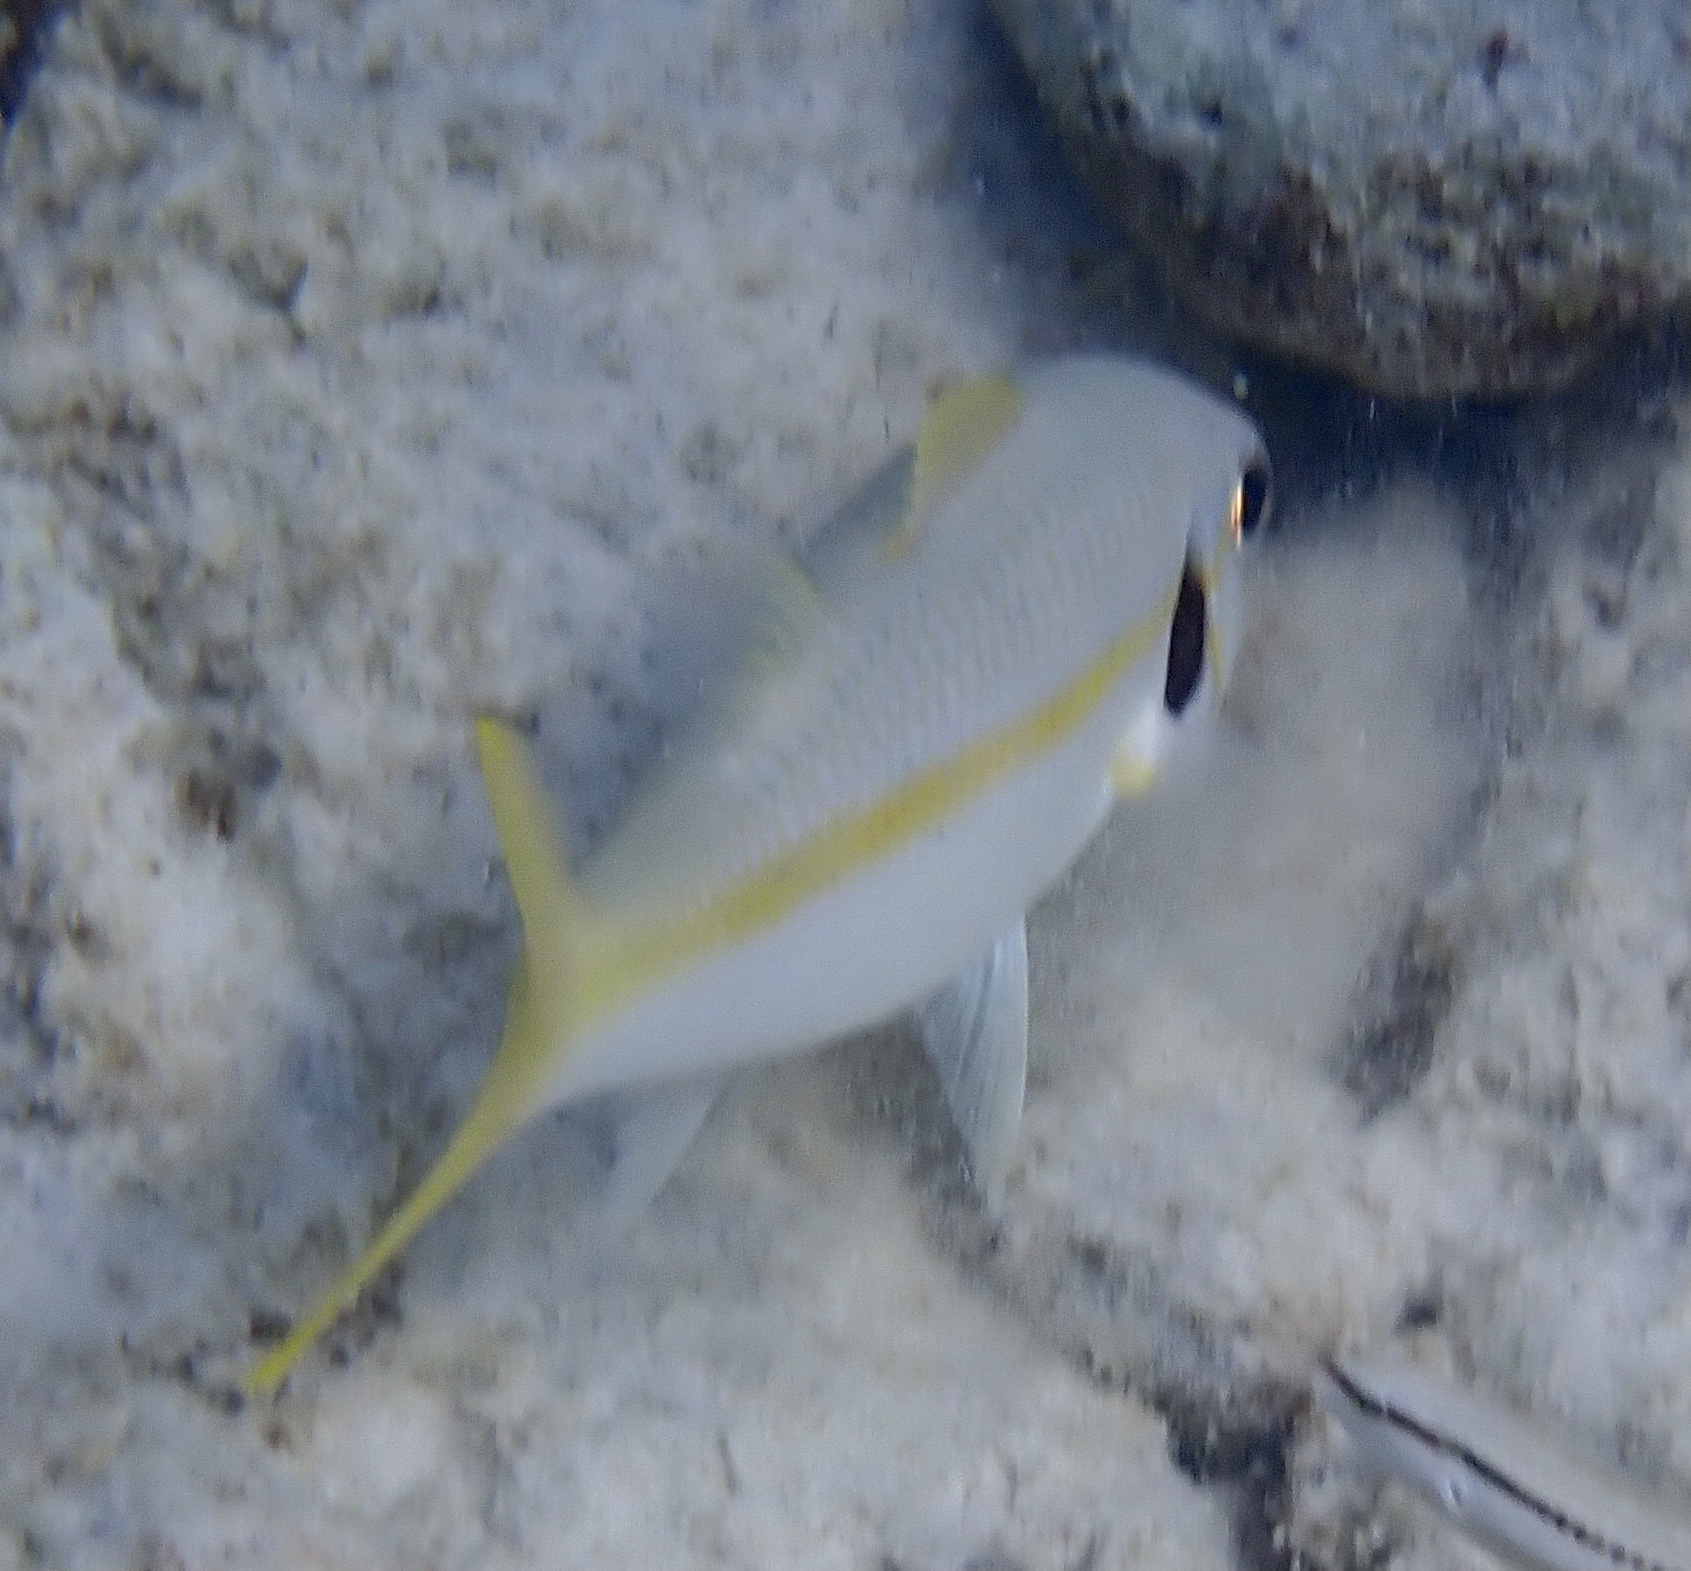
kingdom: Animalia
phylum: Chordata
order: Perciformes
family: Mullidae
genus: Mulloidichthys
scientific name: Mulloidichthys martinicus
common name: Yellow goatfish
